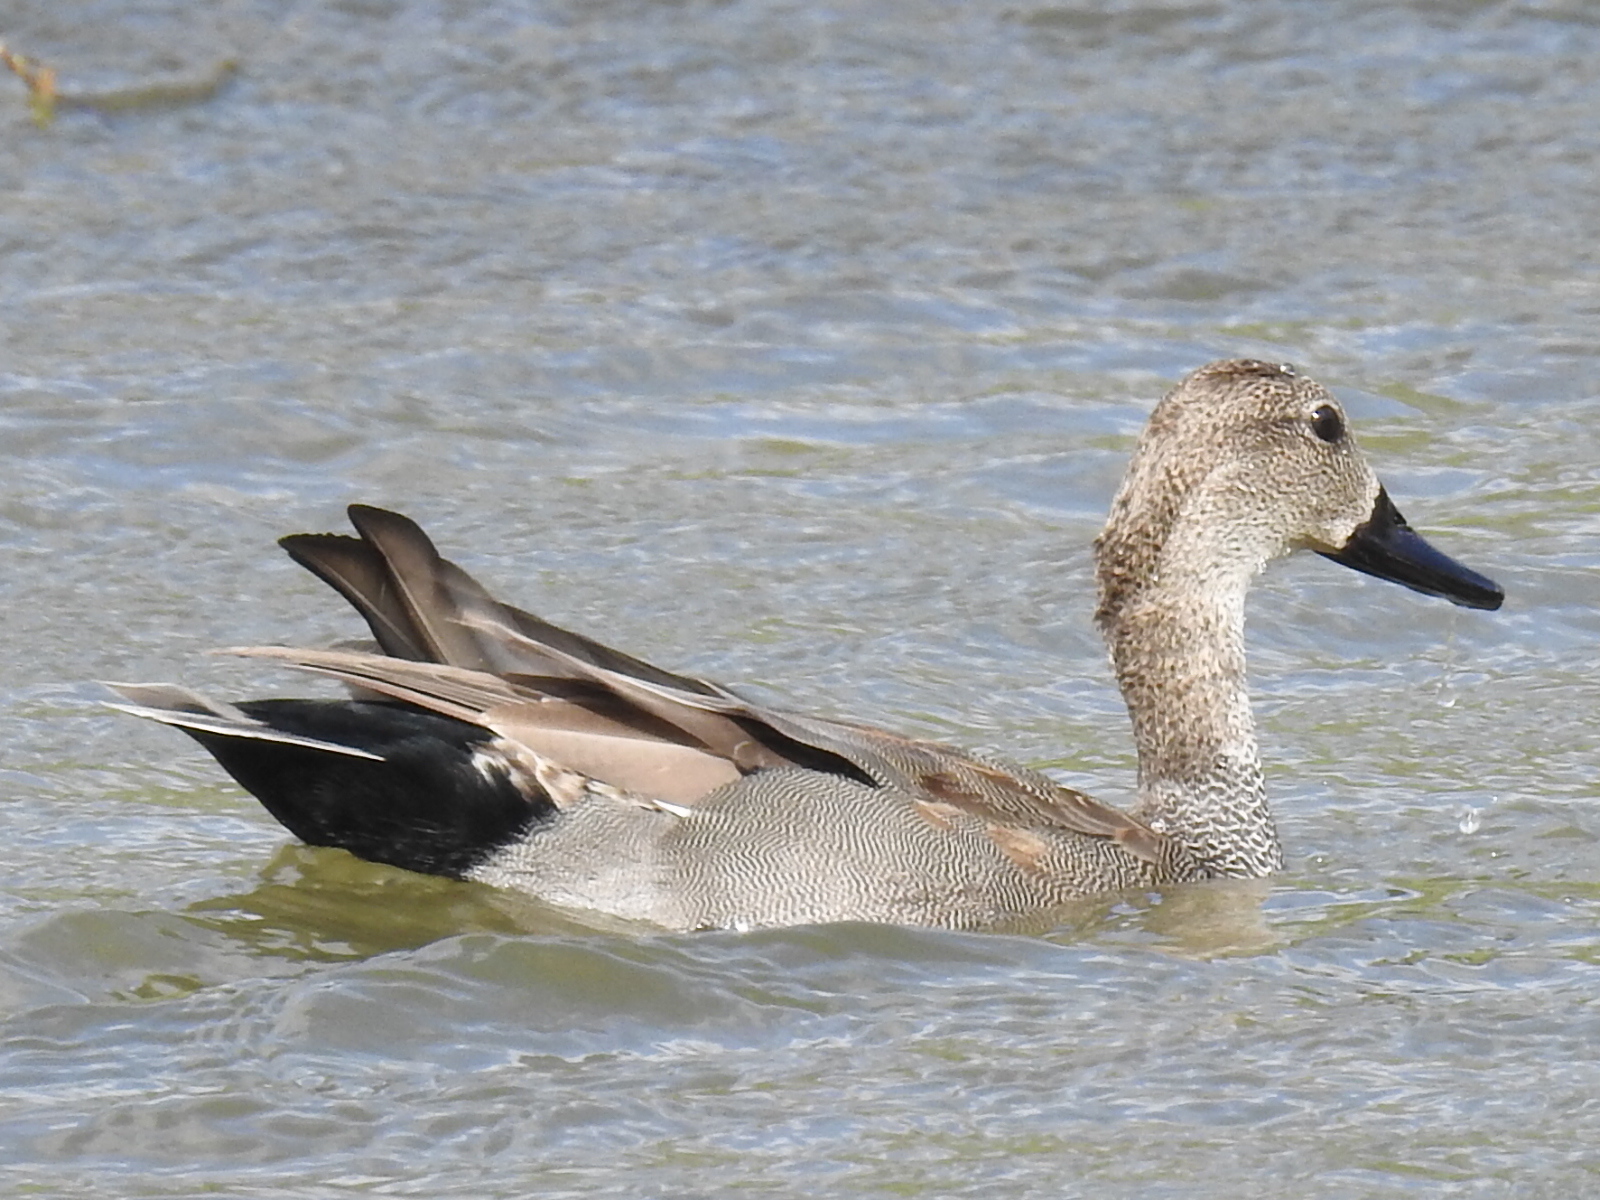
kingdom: Animalia
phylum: Chordata
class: Aves
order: Anseriformes
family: Anatidae
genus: Mareca
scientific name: Mareca strepera
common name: Gadwall
